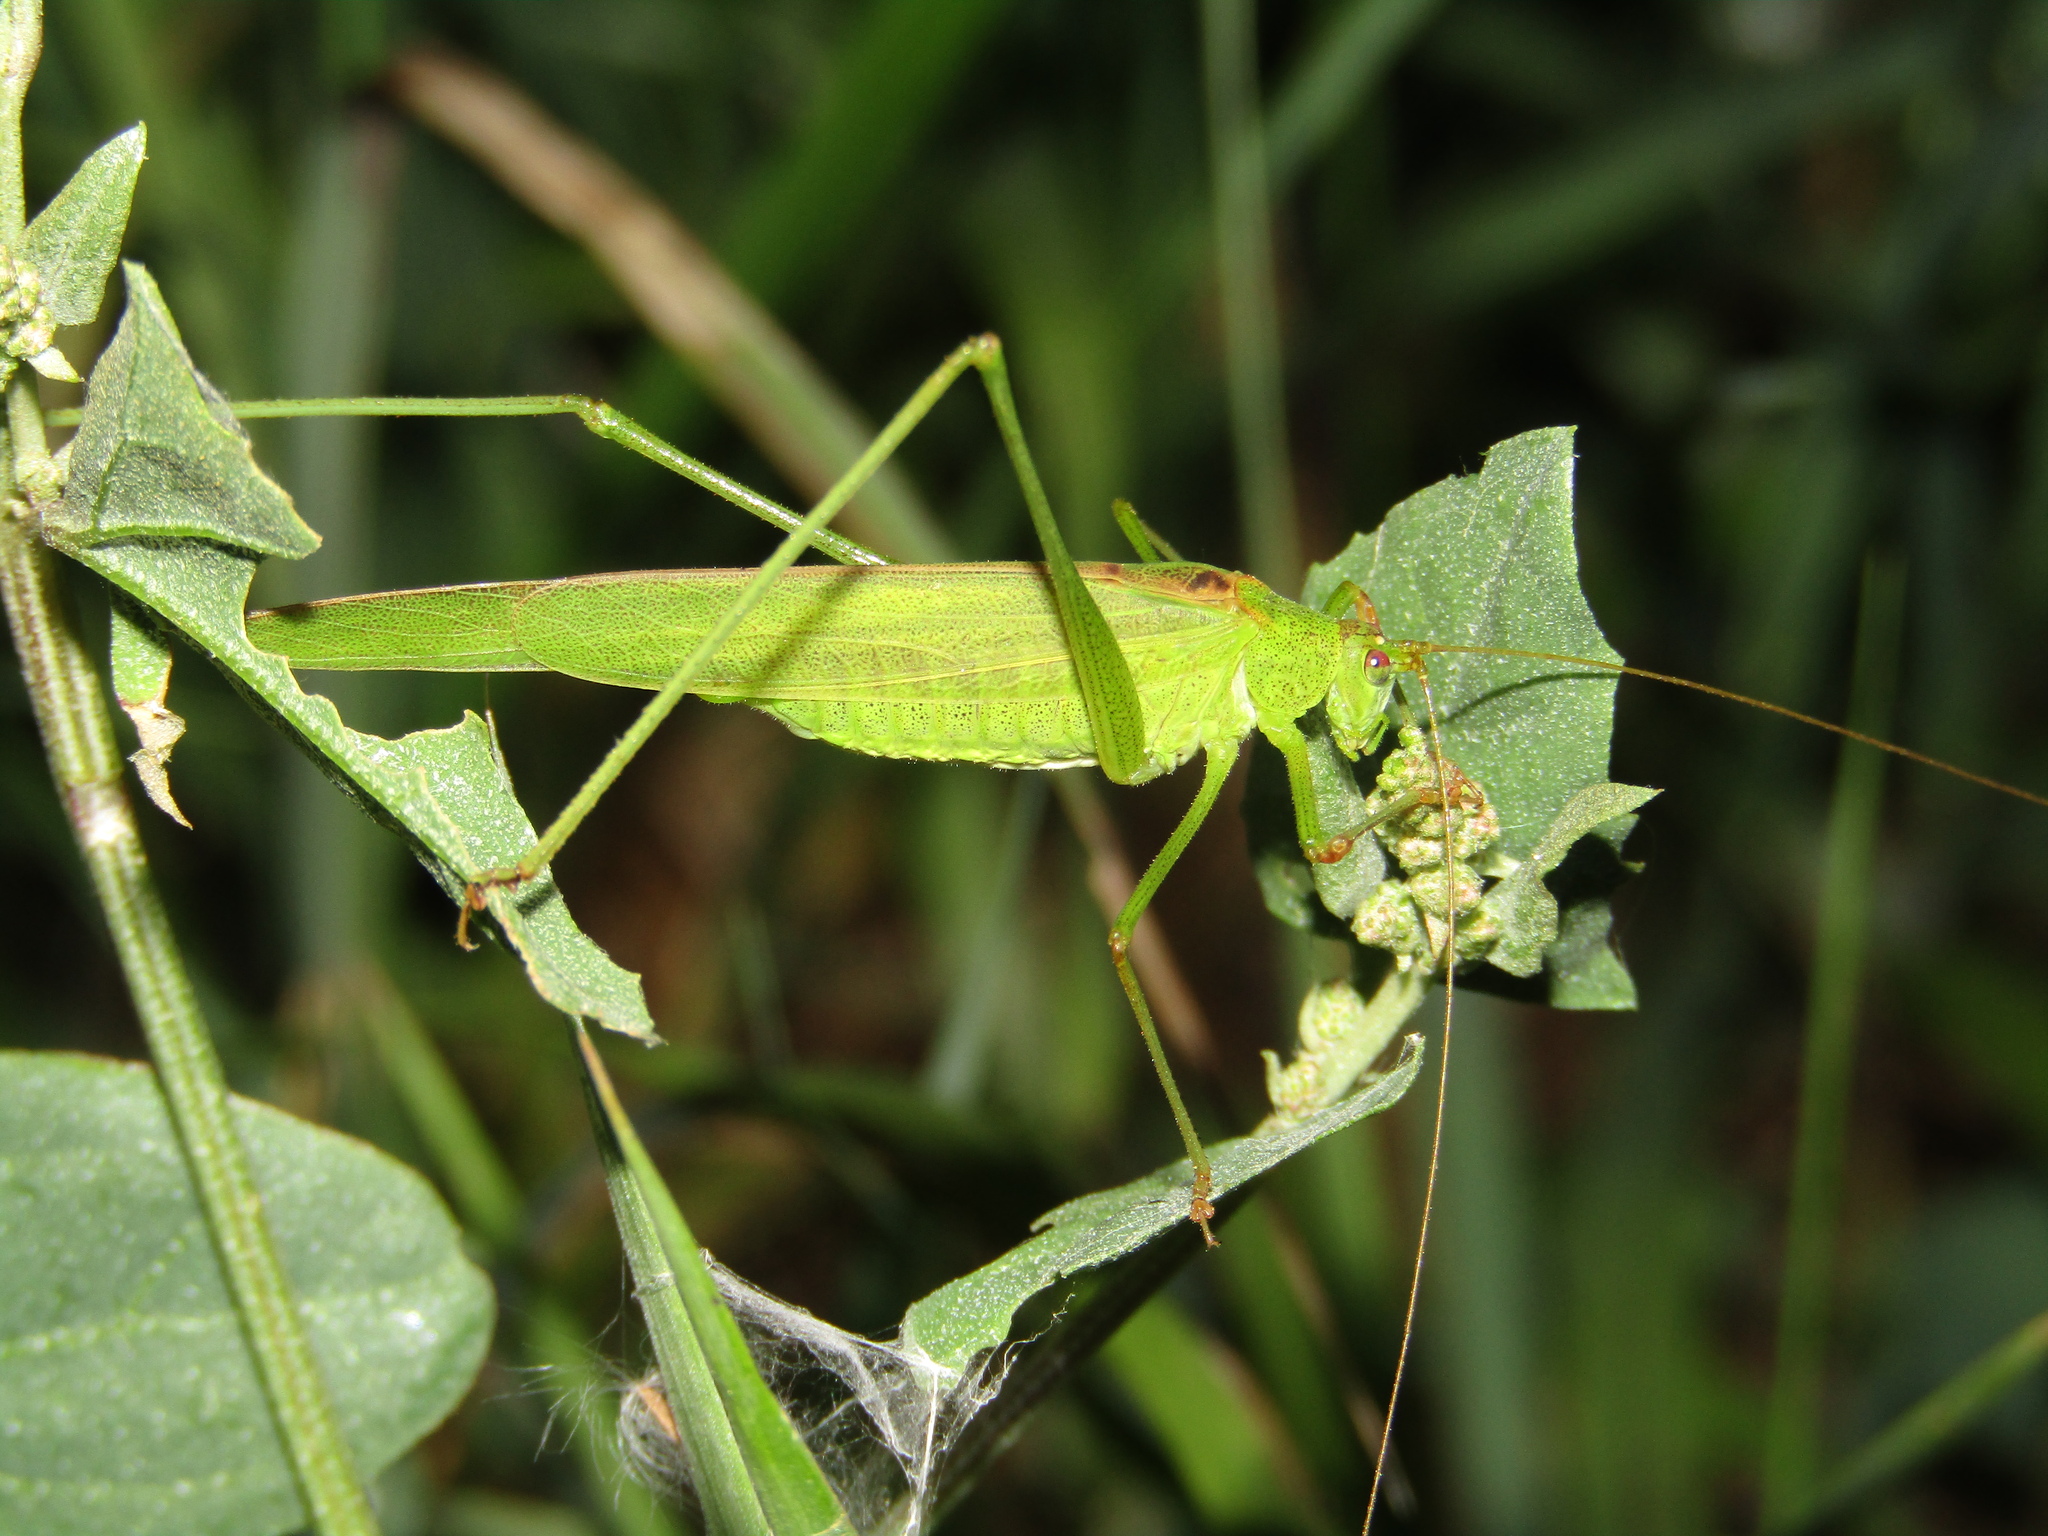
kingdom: Animalia
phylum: Arthropoda
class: Insecta
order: Orthoptera
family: Tettigoniidae
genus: Phaneroptera
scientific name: Phaneroptera falcata
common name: Sickle-bearing bush-cricket
